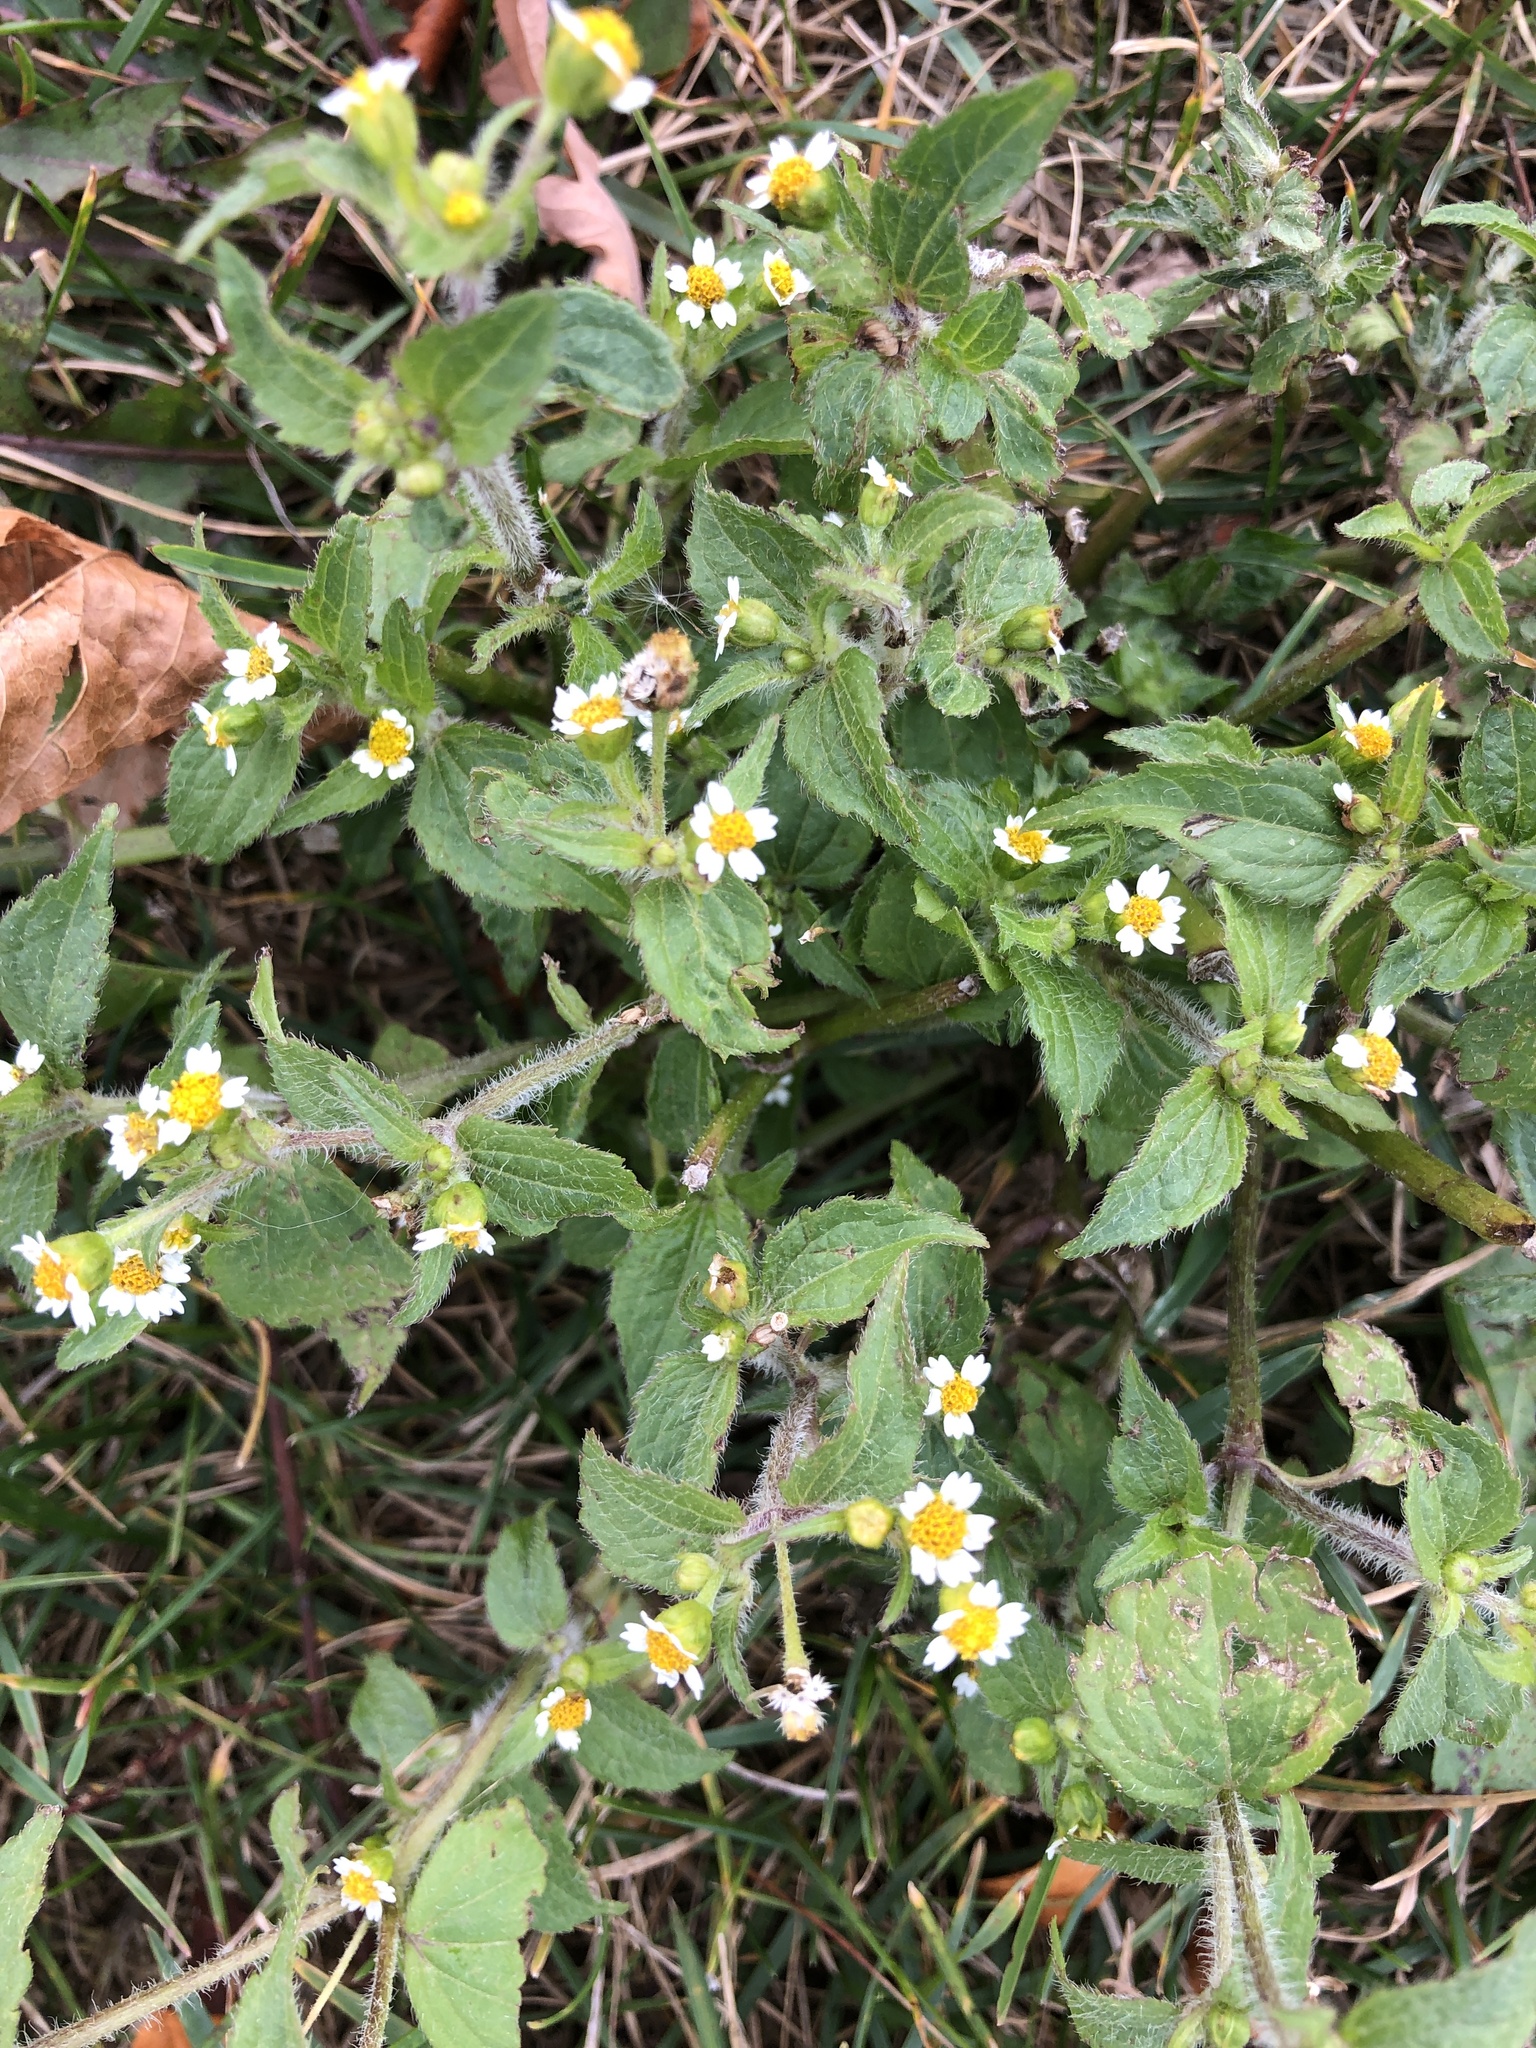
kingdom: Plantae
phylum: Tracheophyta
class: Magnoliopsida
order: Asterales
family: Asteraceae
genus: Galinsoga
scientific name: Galinsoga quadriradiata
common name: Shaggy soldier
